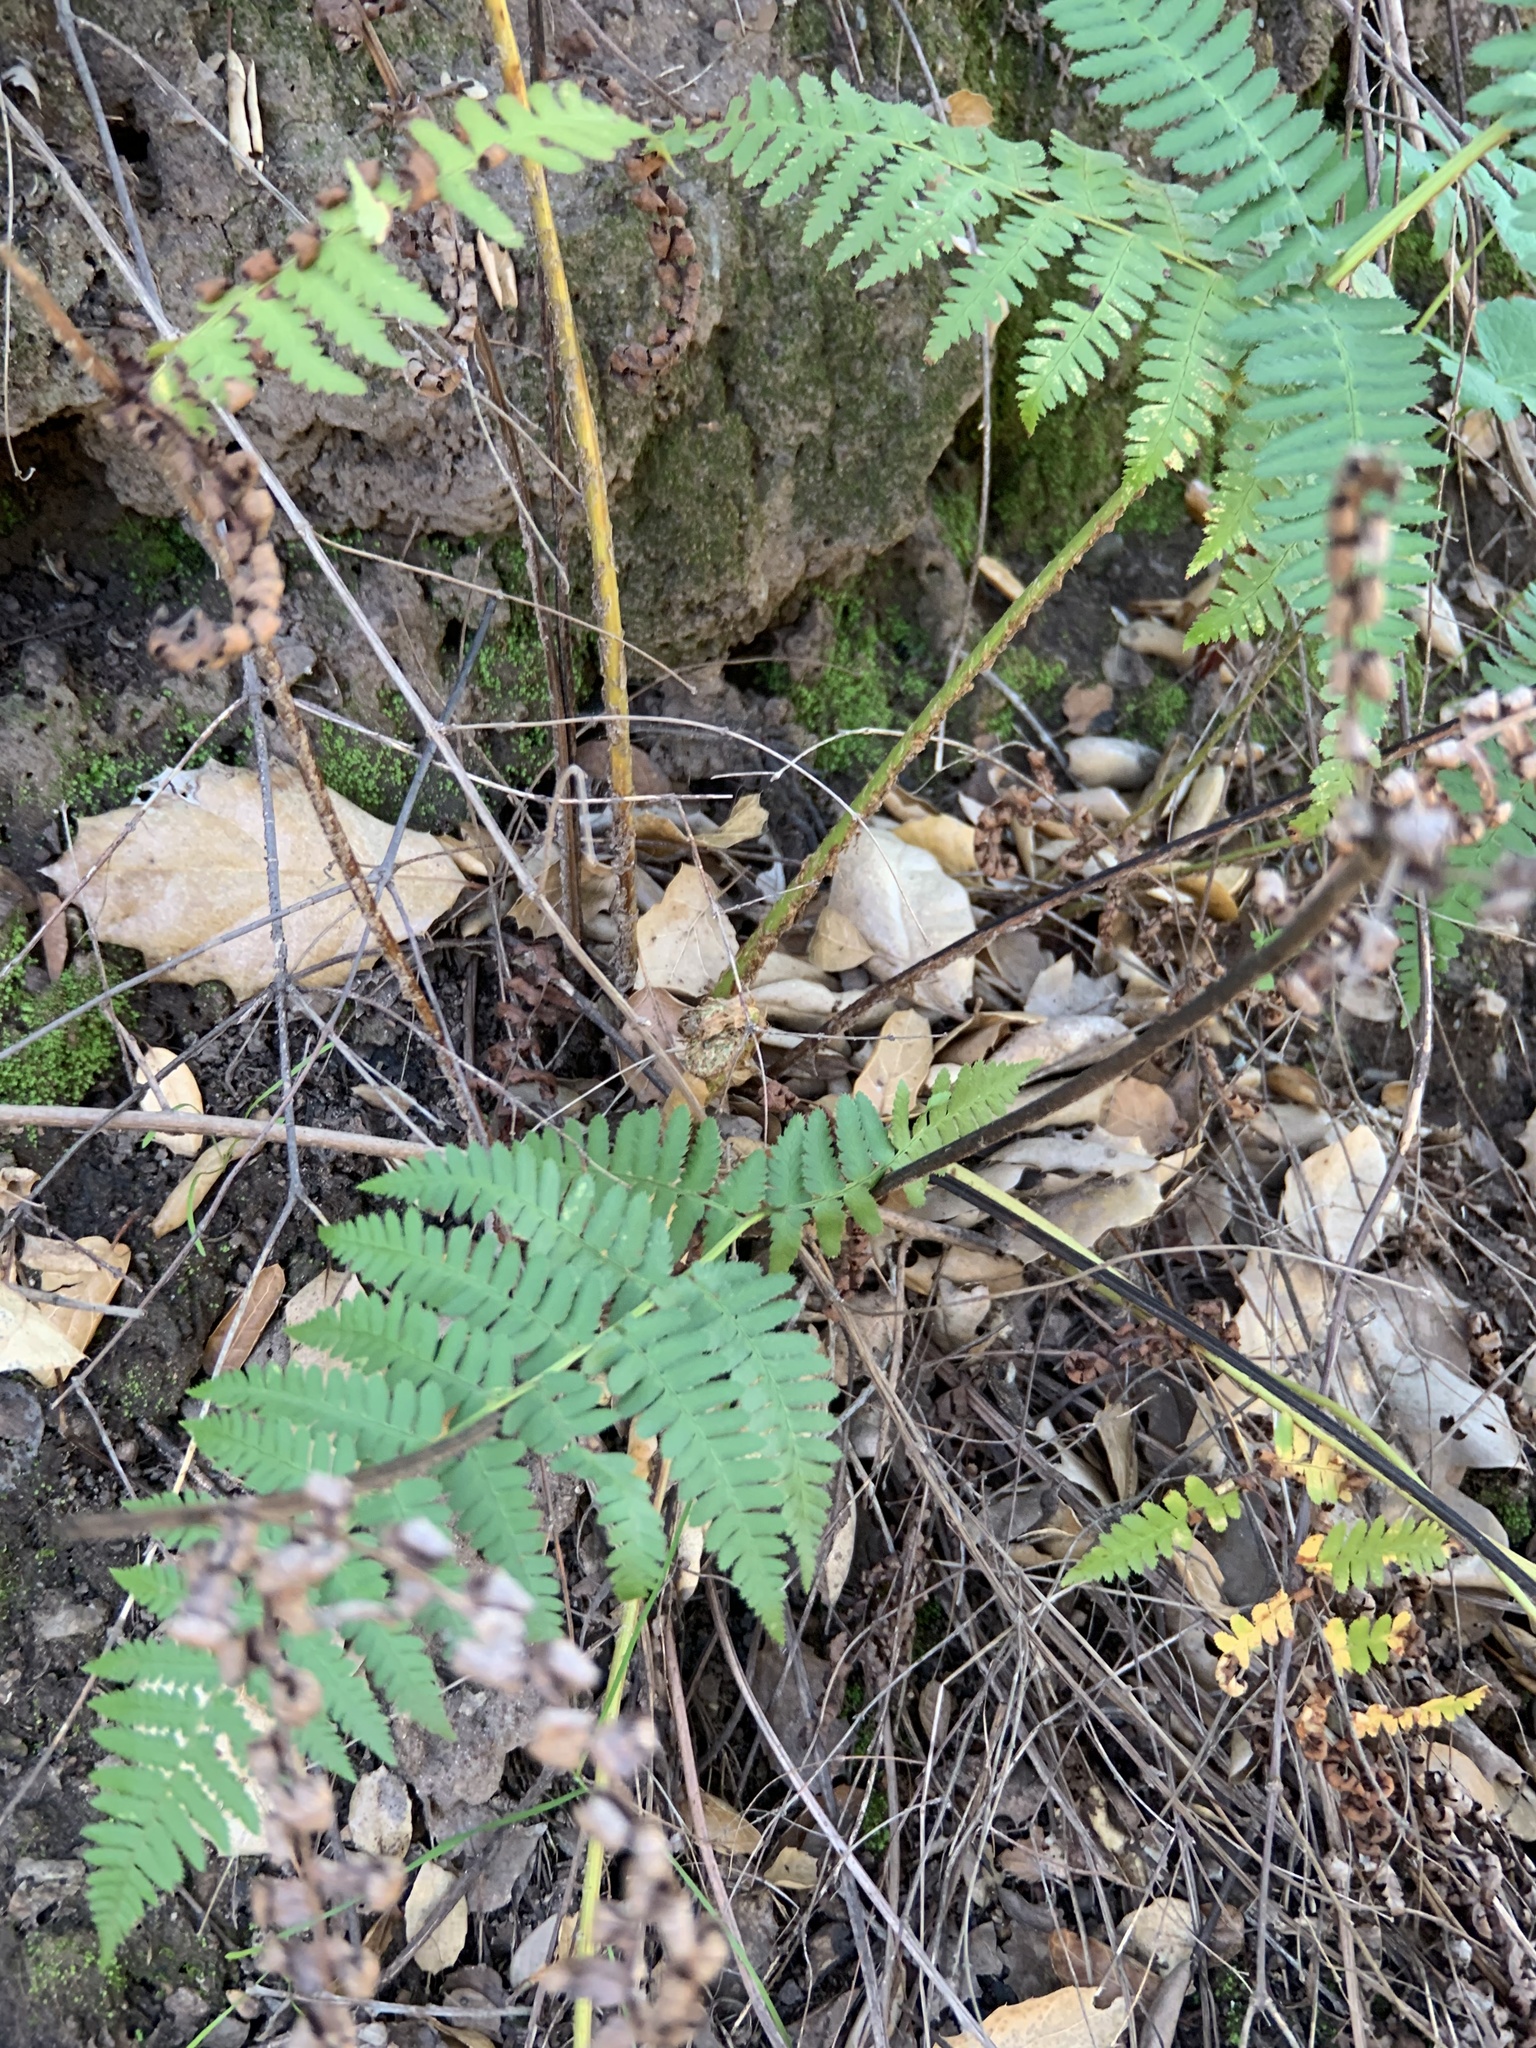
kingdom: Plantae
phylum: Tracheophyta
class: Polypodiopsida
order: Polypodiales
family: Dryopteridaceae
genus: Dryopteris
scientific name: Dryopteris arguta
